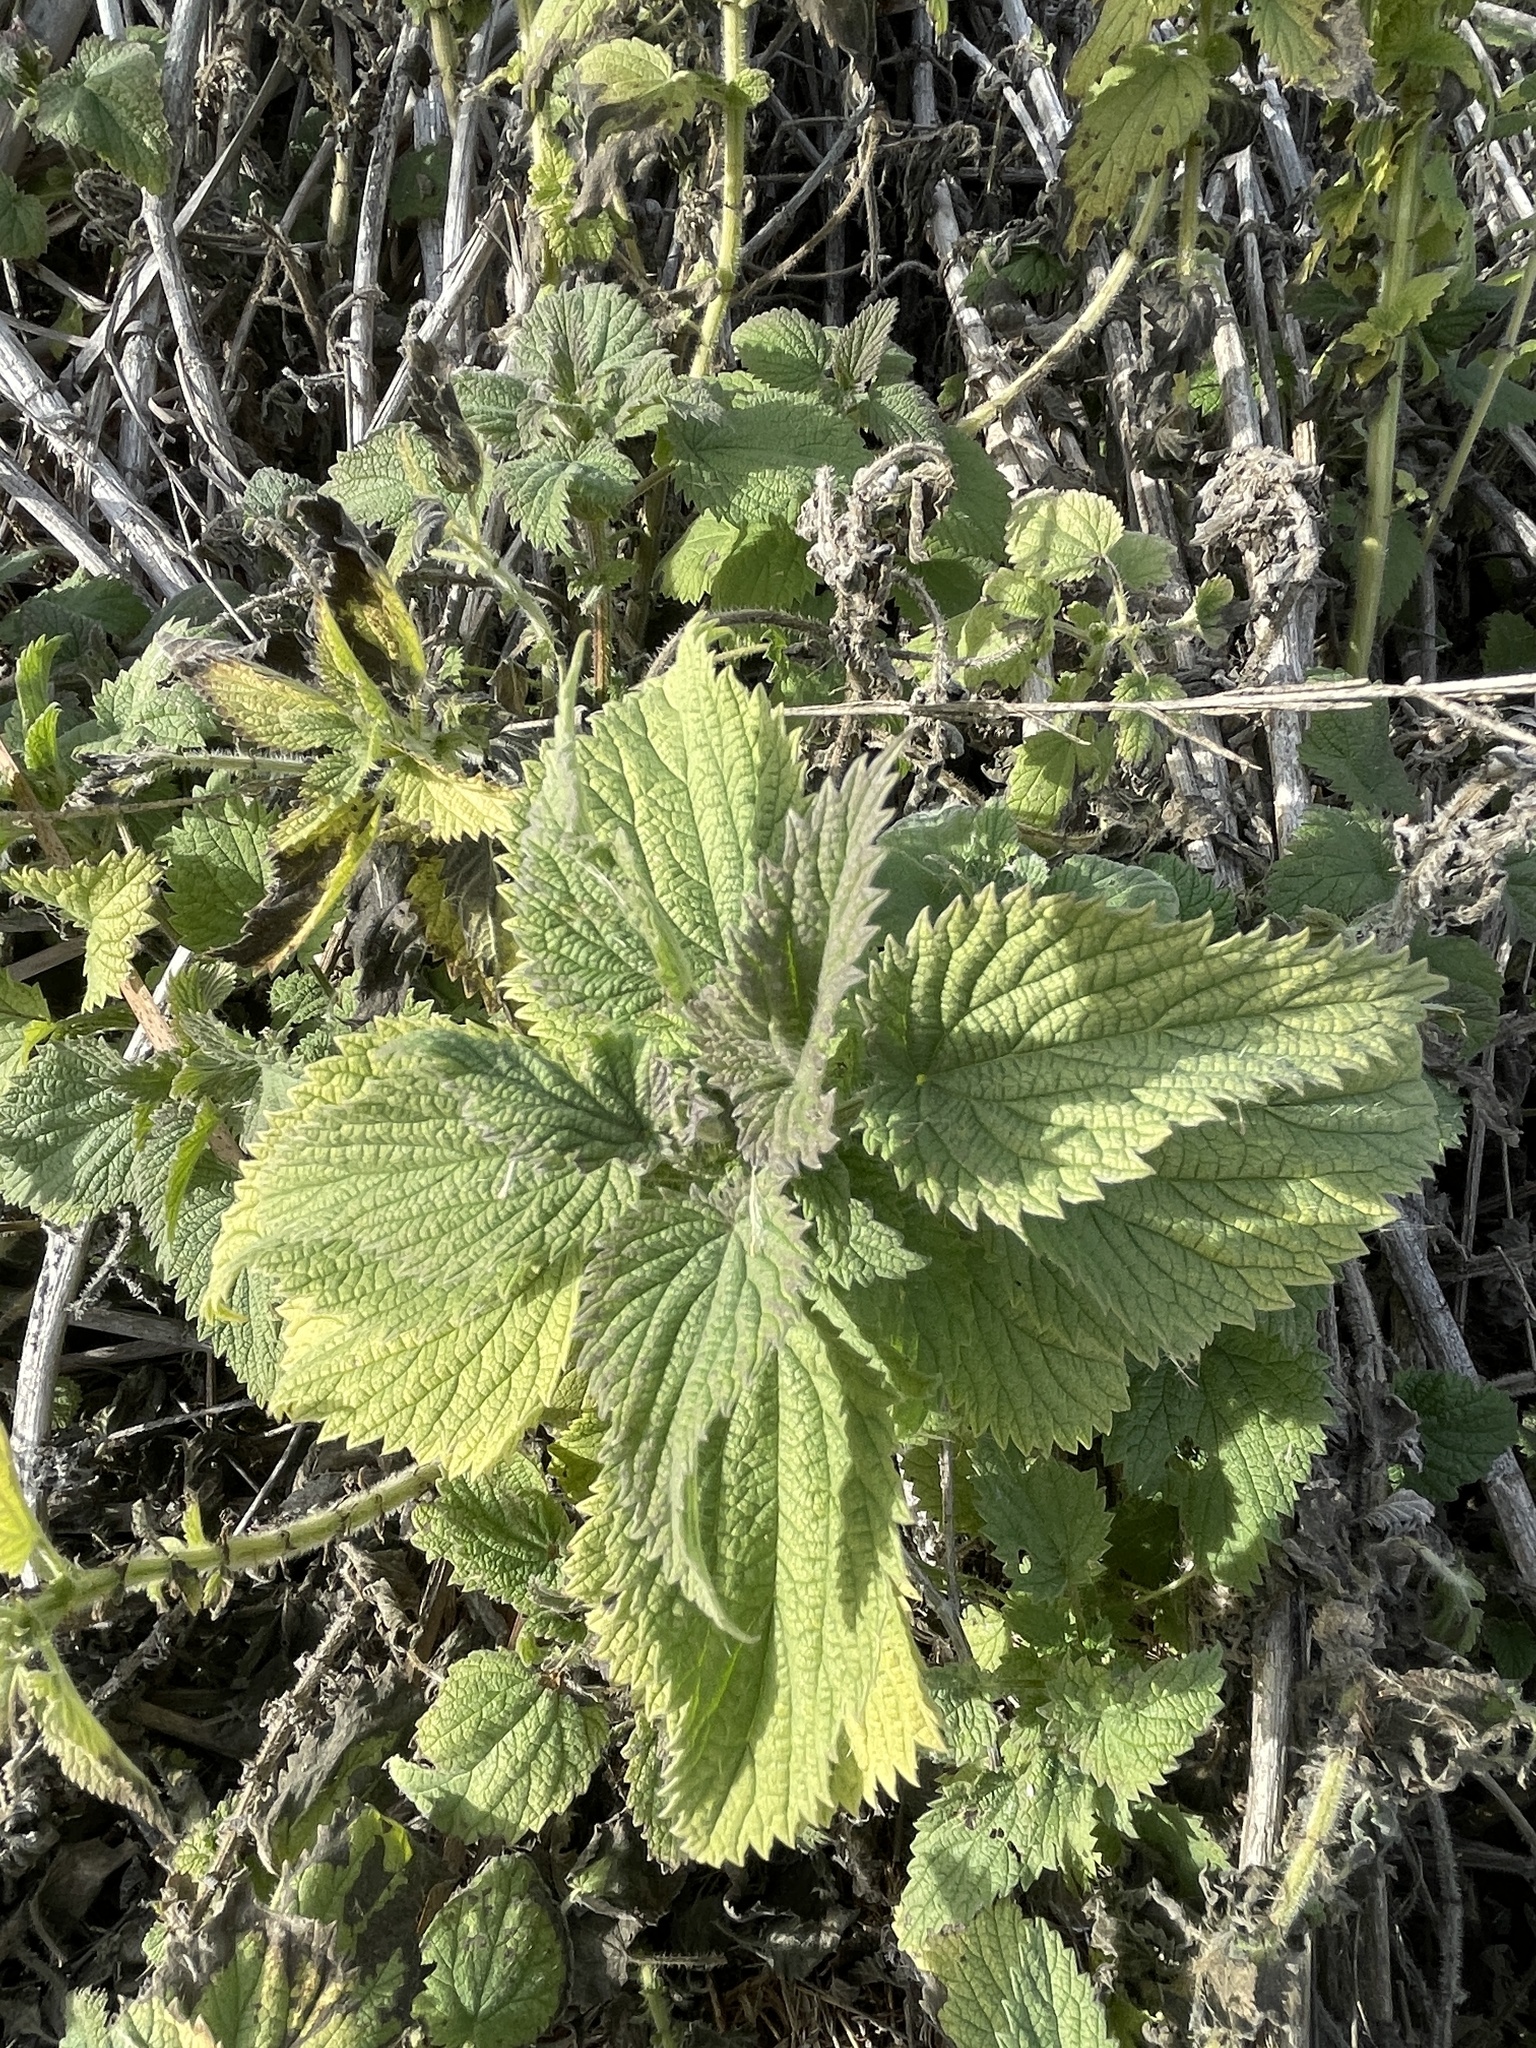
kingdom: Plantae
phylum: Tracheophyta
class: Magnoliopsida
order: Rosales
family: Urticaceae
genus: Urtica
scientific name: Urtica dioica
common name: Common nettle
